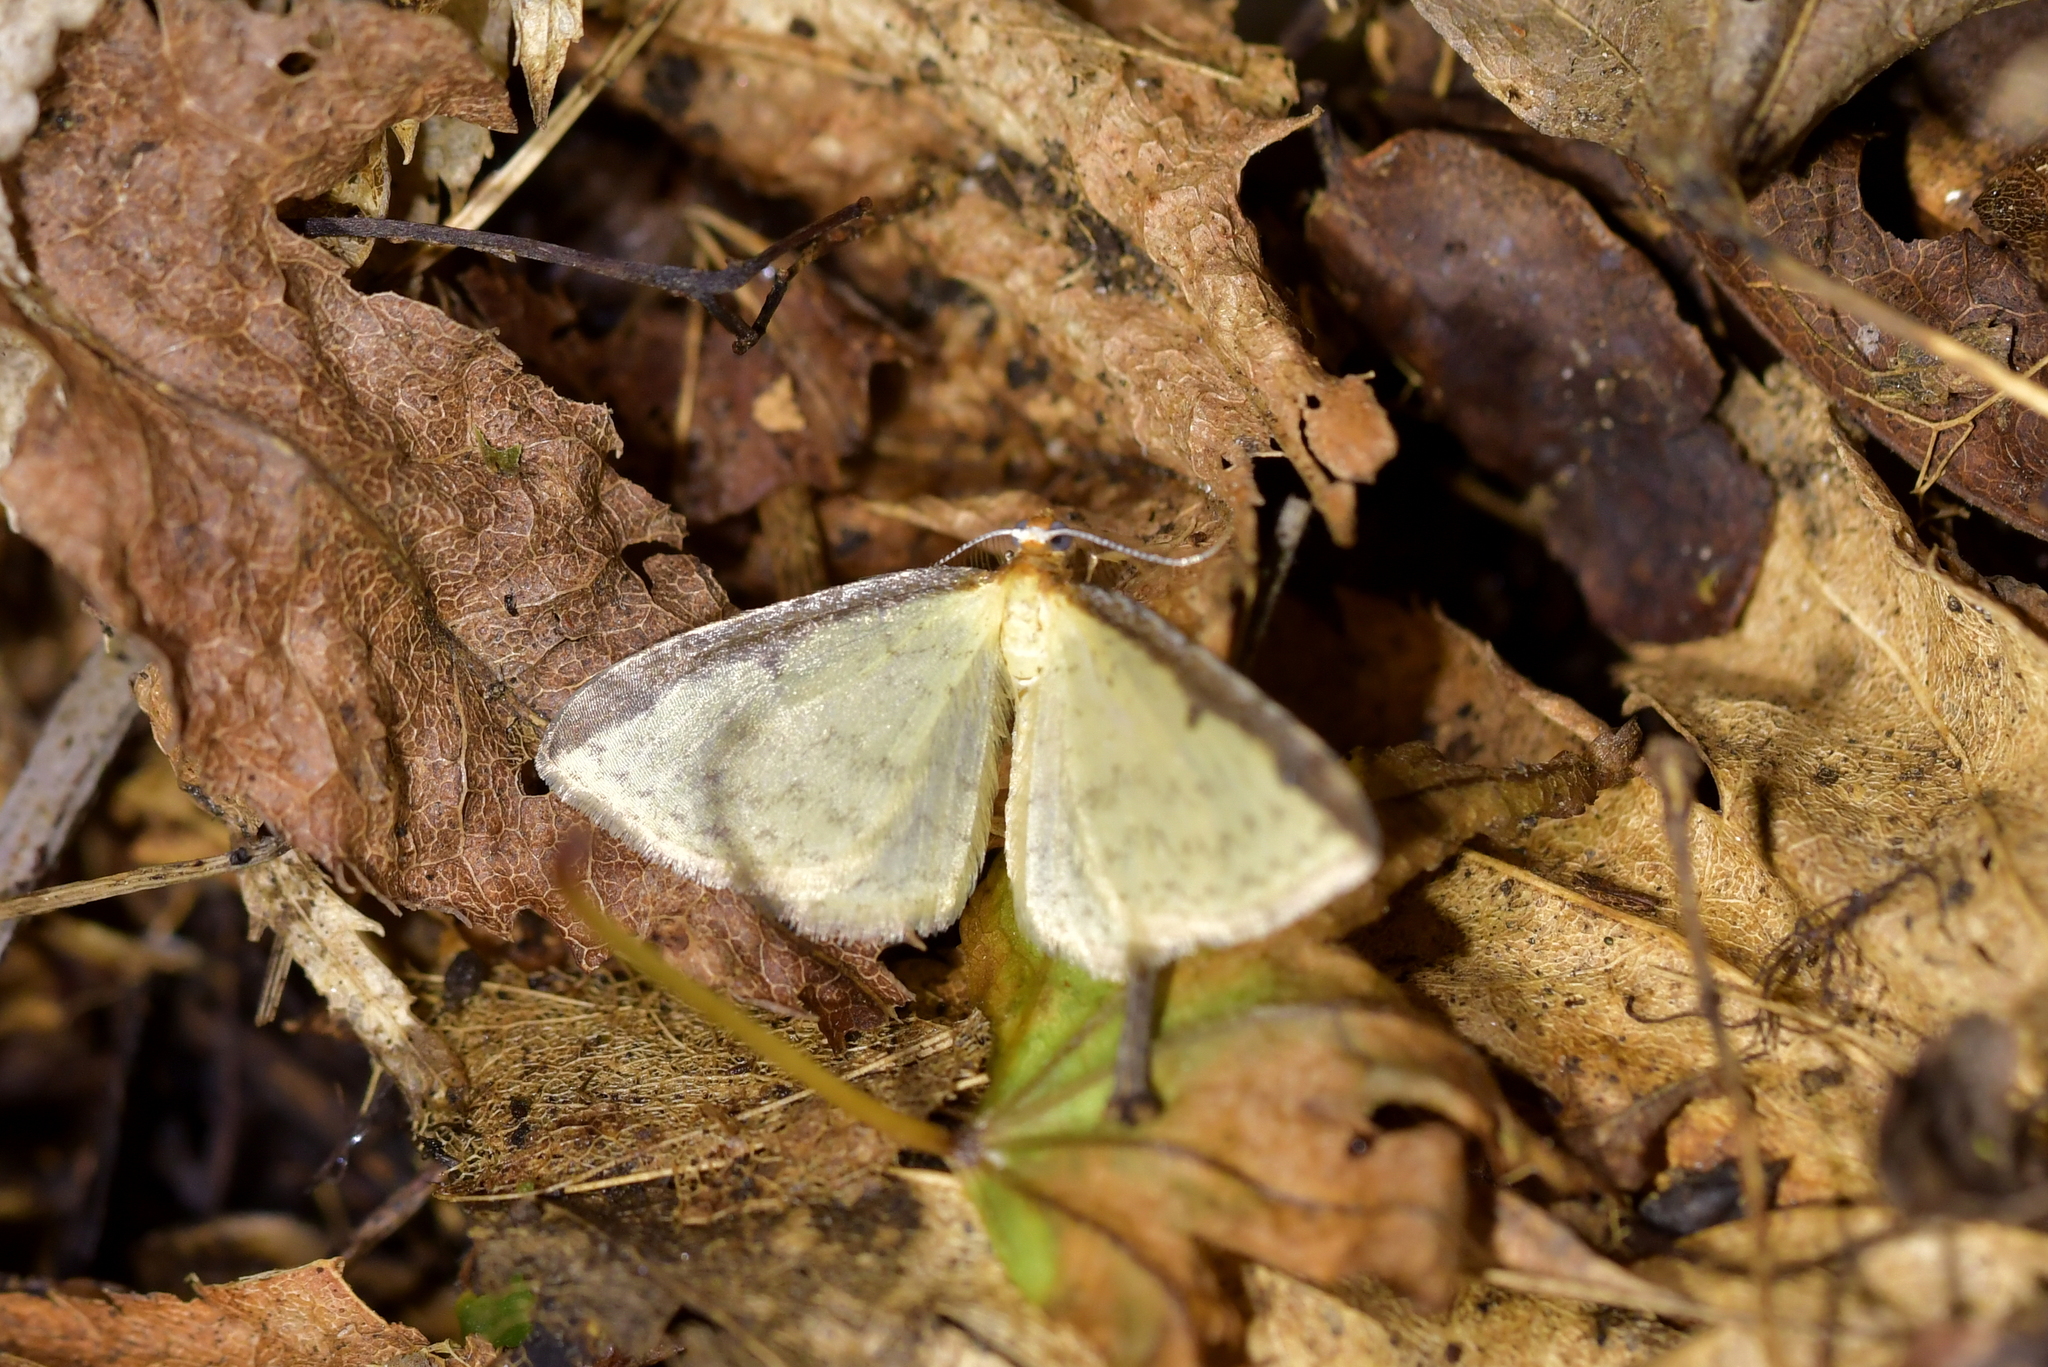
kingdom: Animalia
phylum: Arthropoda
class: Insecta
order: Lepidoptera
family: Geometridae
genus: Epiphryne
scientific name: Epiphryne undosata
